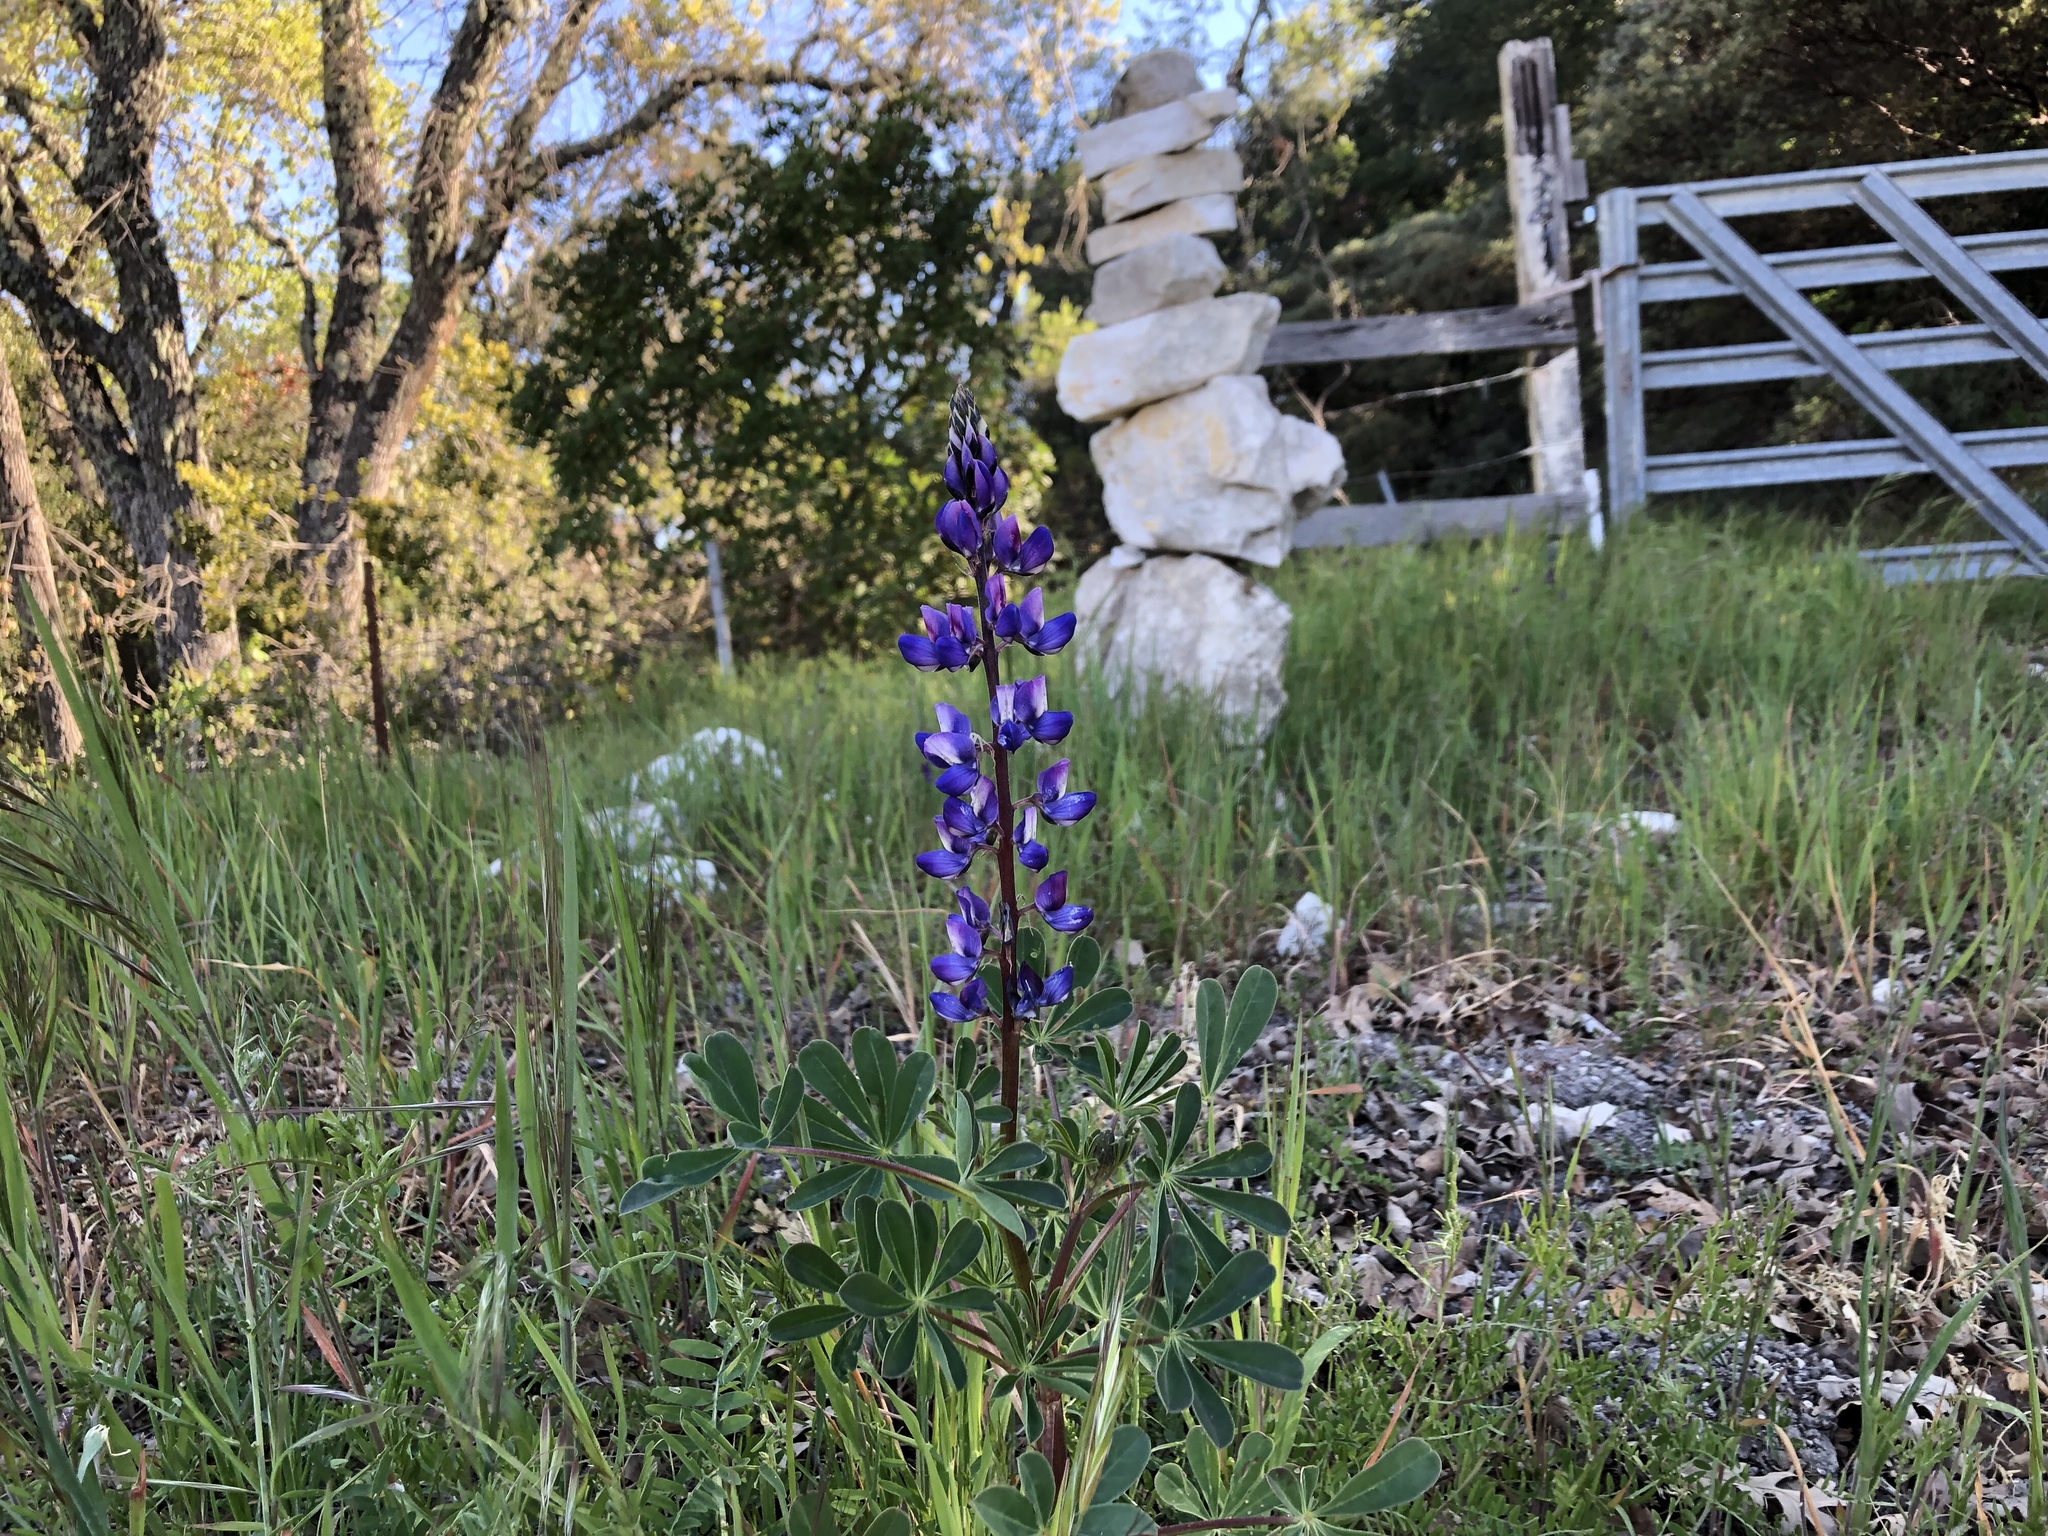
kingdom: Plantae
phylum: Tracheophyta
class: Magnoliopsida
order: Fabales
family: Fabaceae
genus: Lupinus
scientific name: Lupinus succulentus
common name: Arroyo lupine
